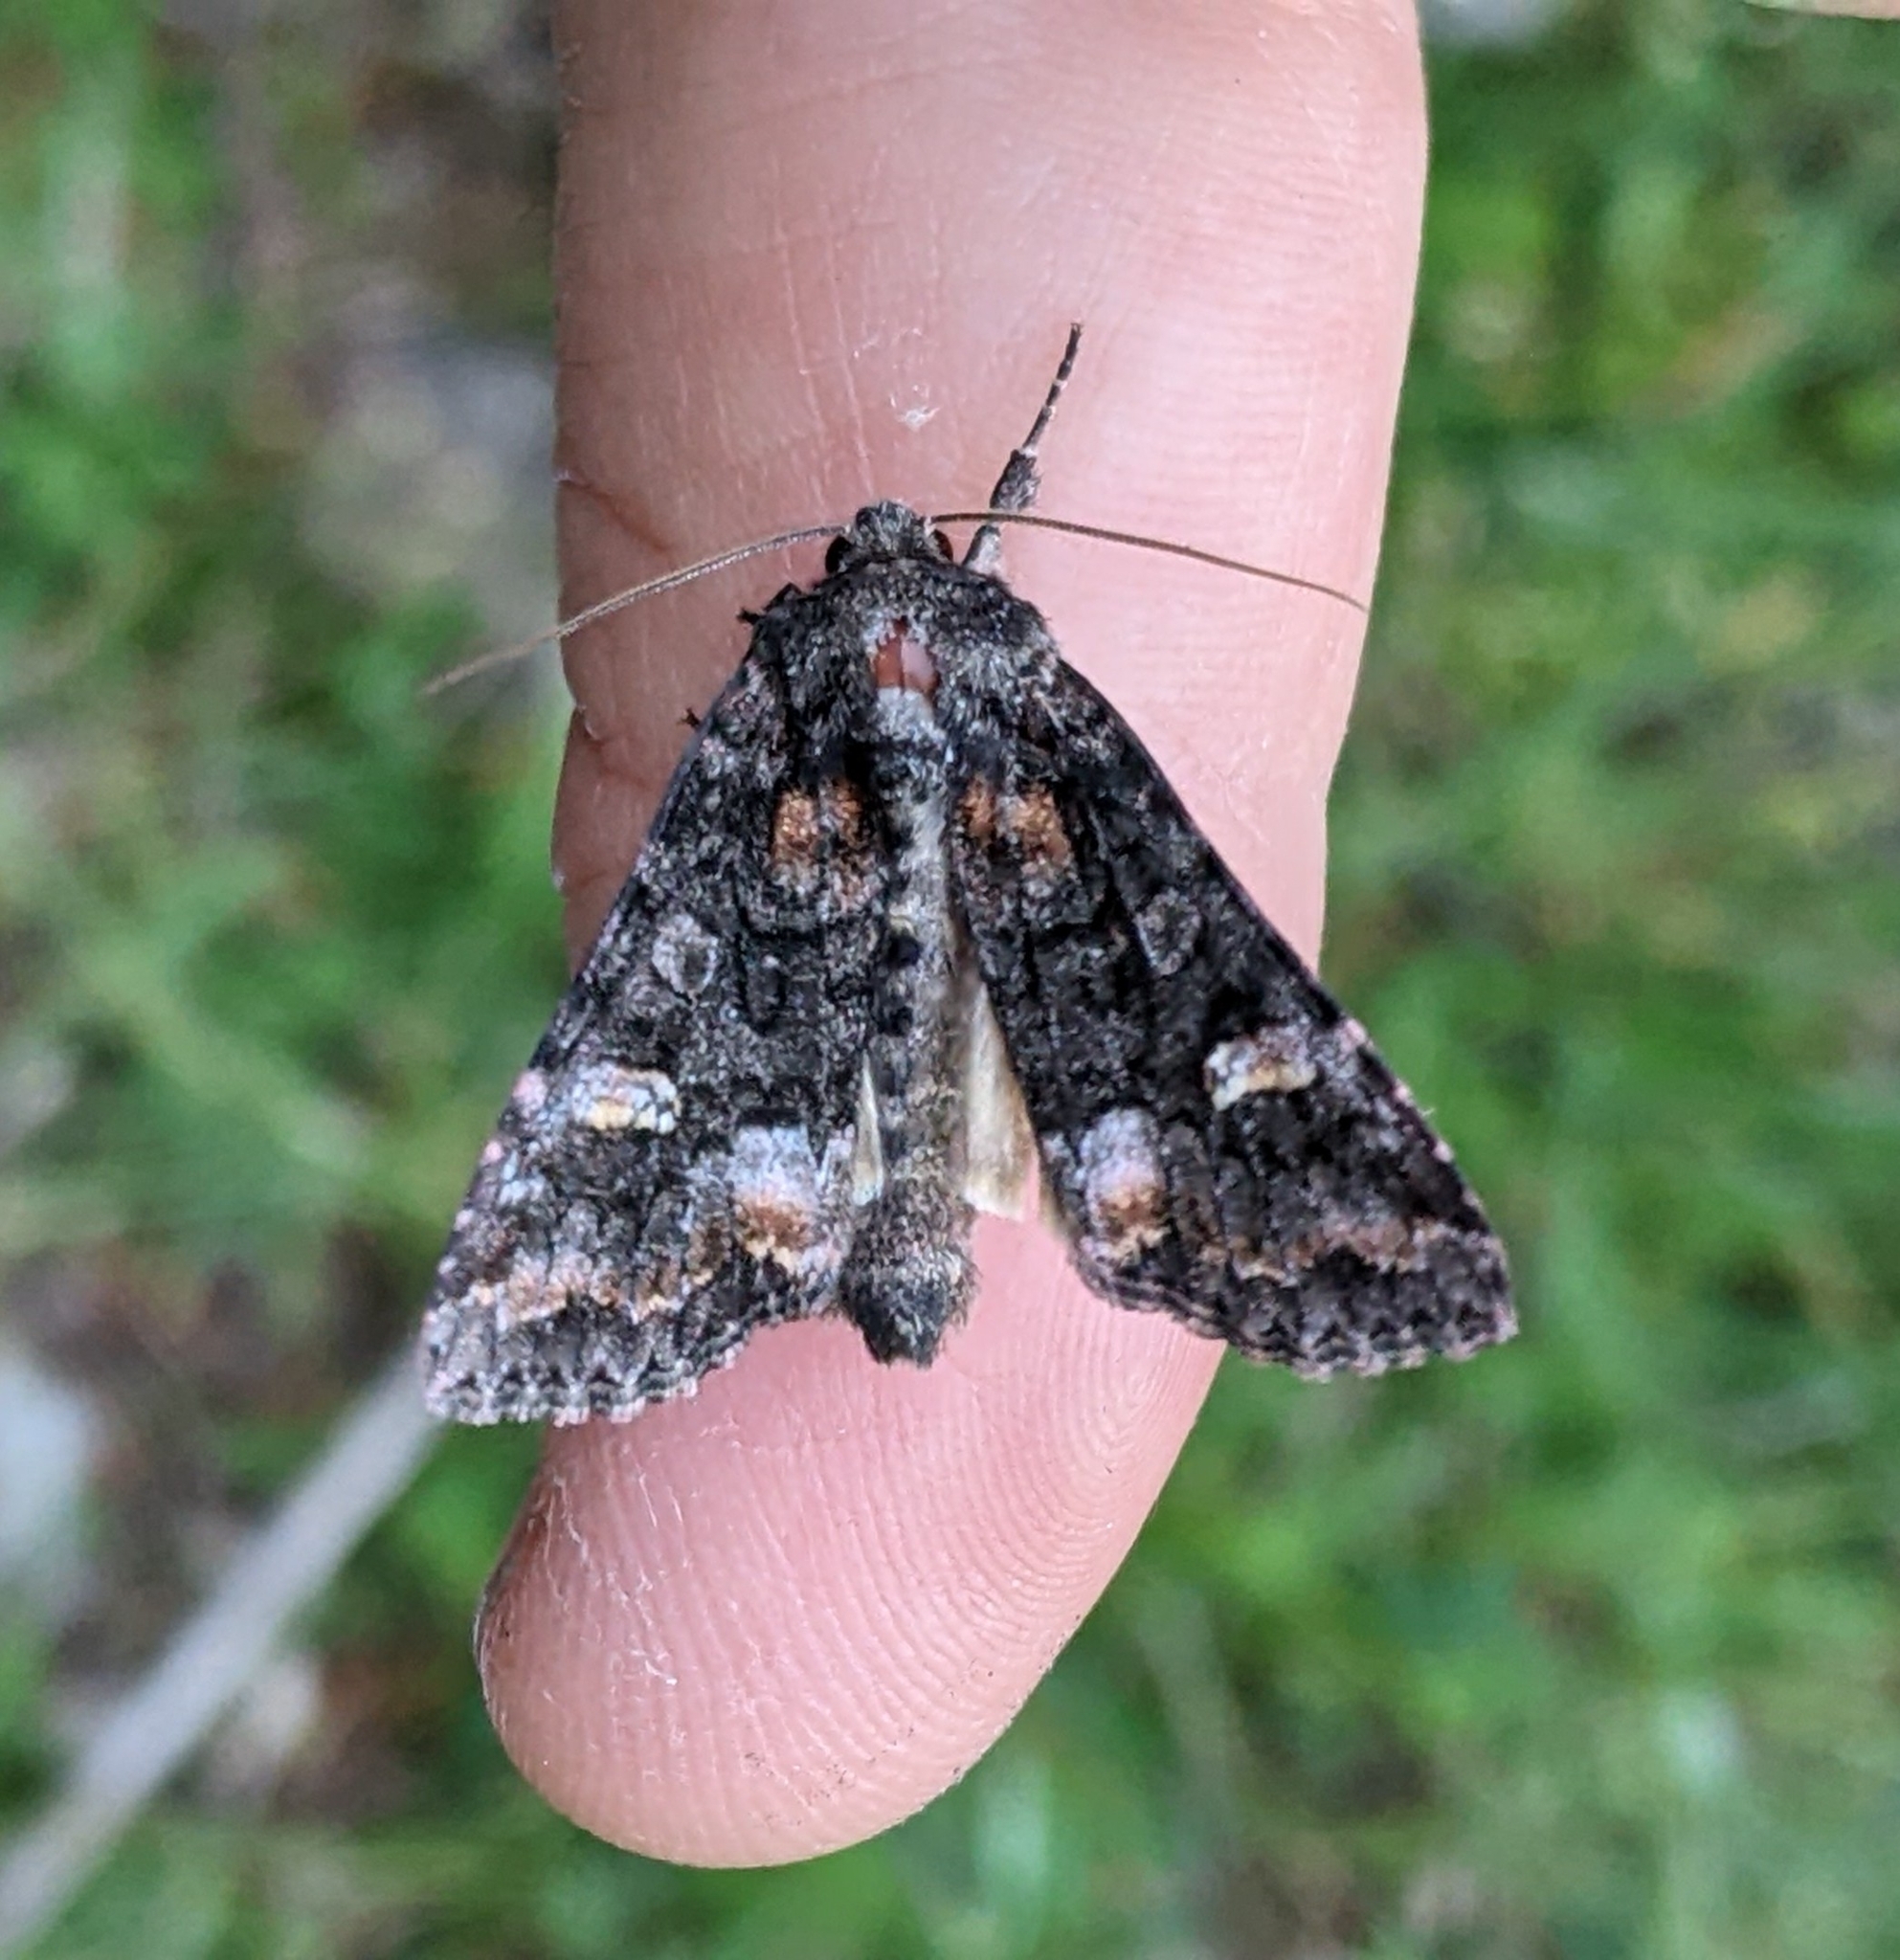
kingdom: Animalia
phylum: Arthropoda
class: Insecta
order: Lepidoptera
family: Noctuidae
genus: Spiramater
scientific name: Spiramater lutra
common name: Otter spiramater moth
